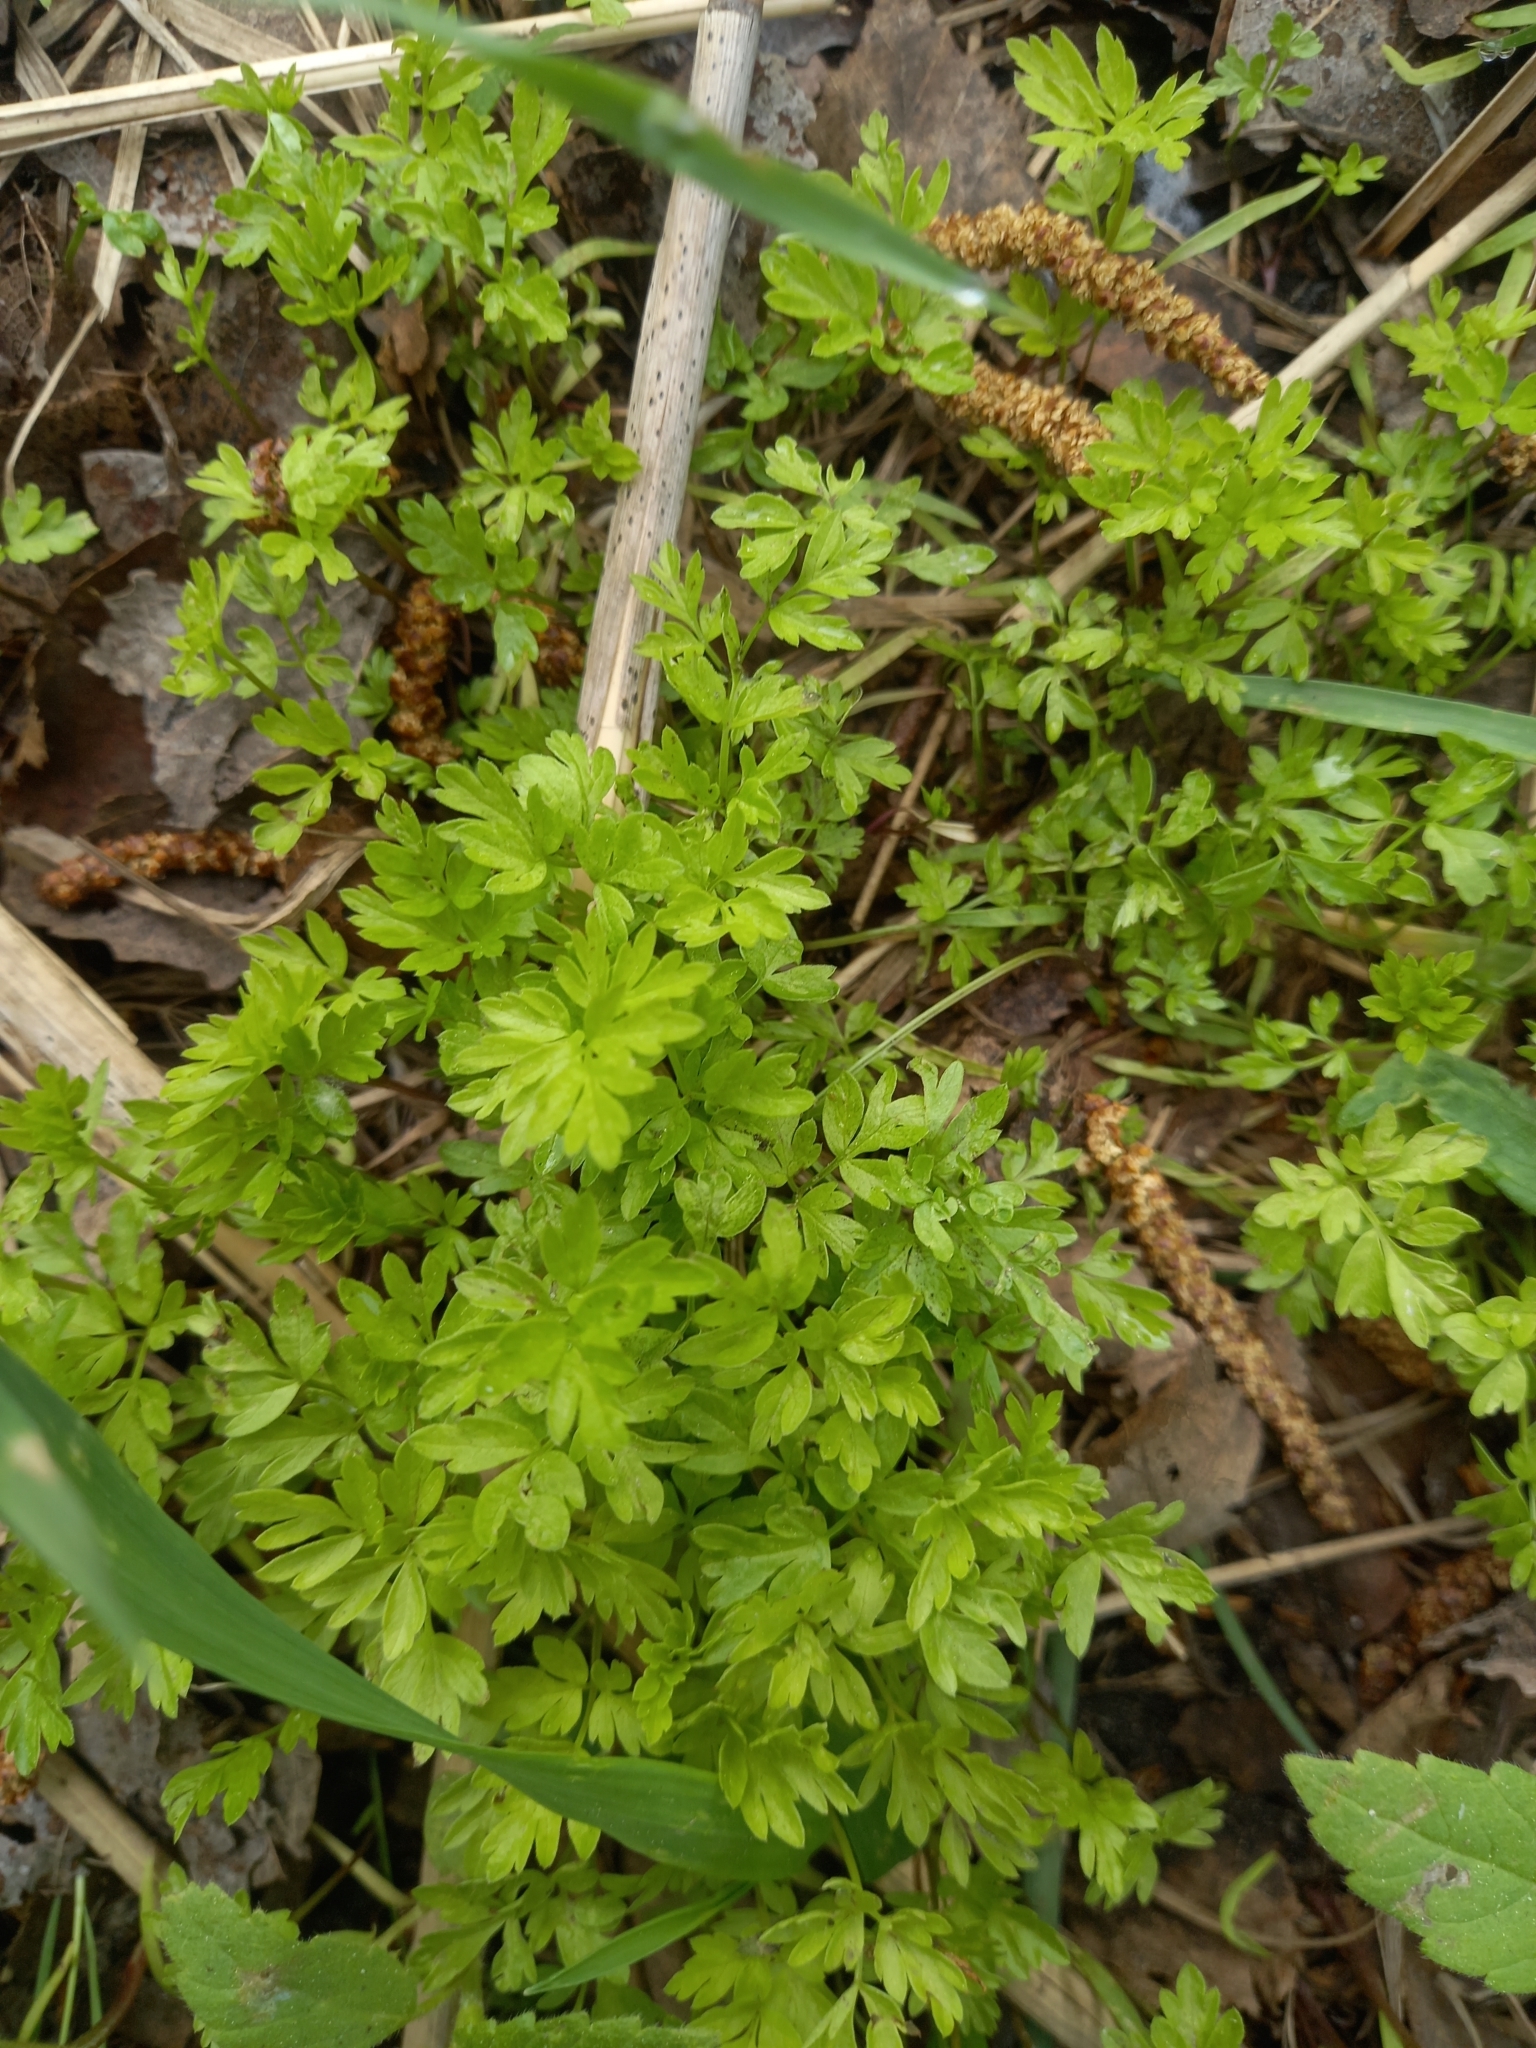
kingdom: Plantae
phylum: Tracheophyta
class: Magnoliopsida
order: Apiales
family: Apiaceae
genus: Anthriscus
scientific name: Anthriscus sylvestris
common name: Cow parsley
